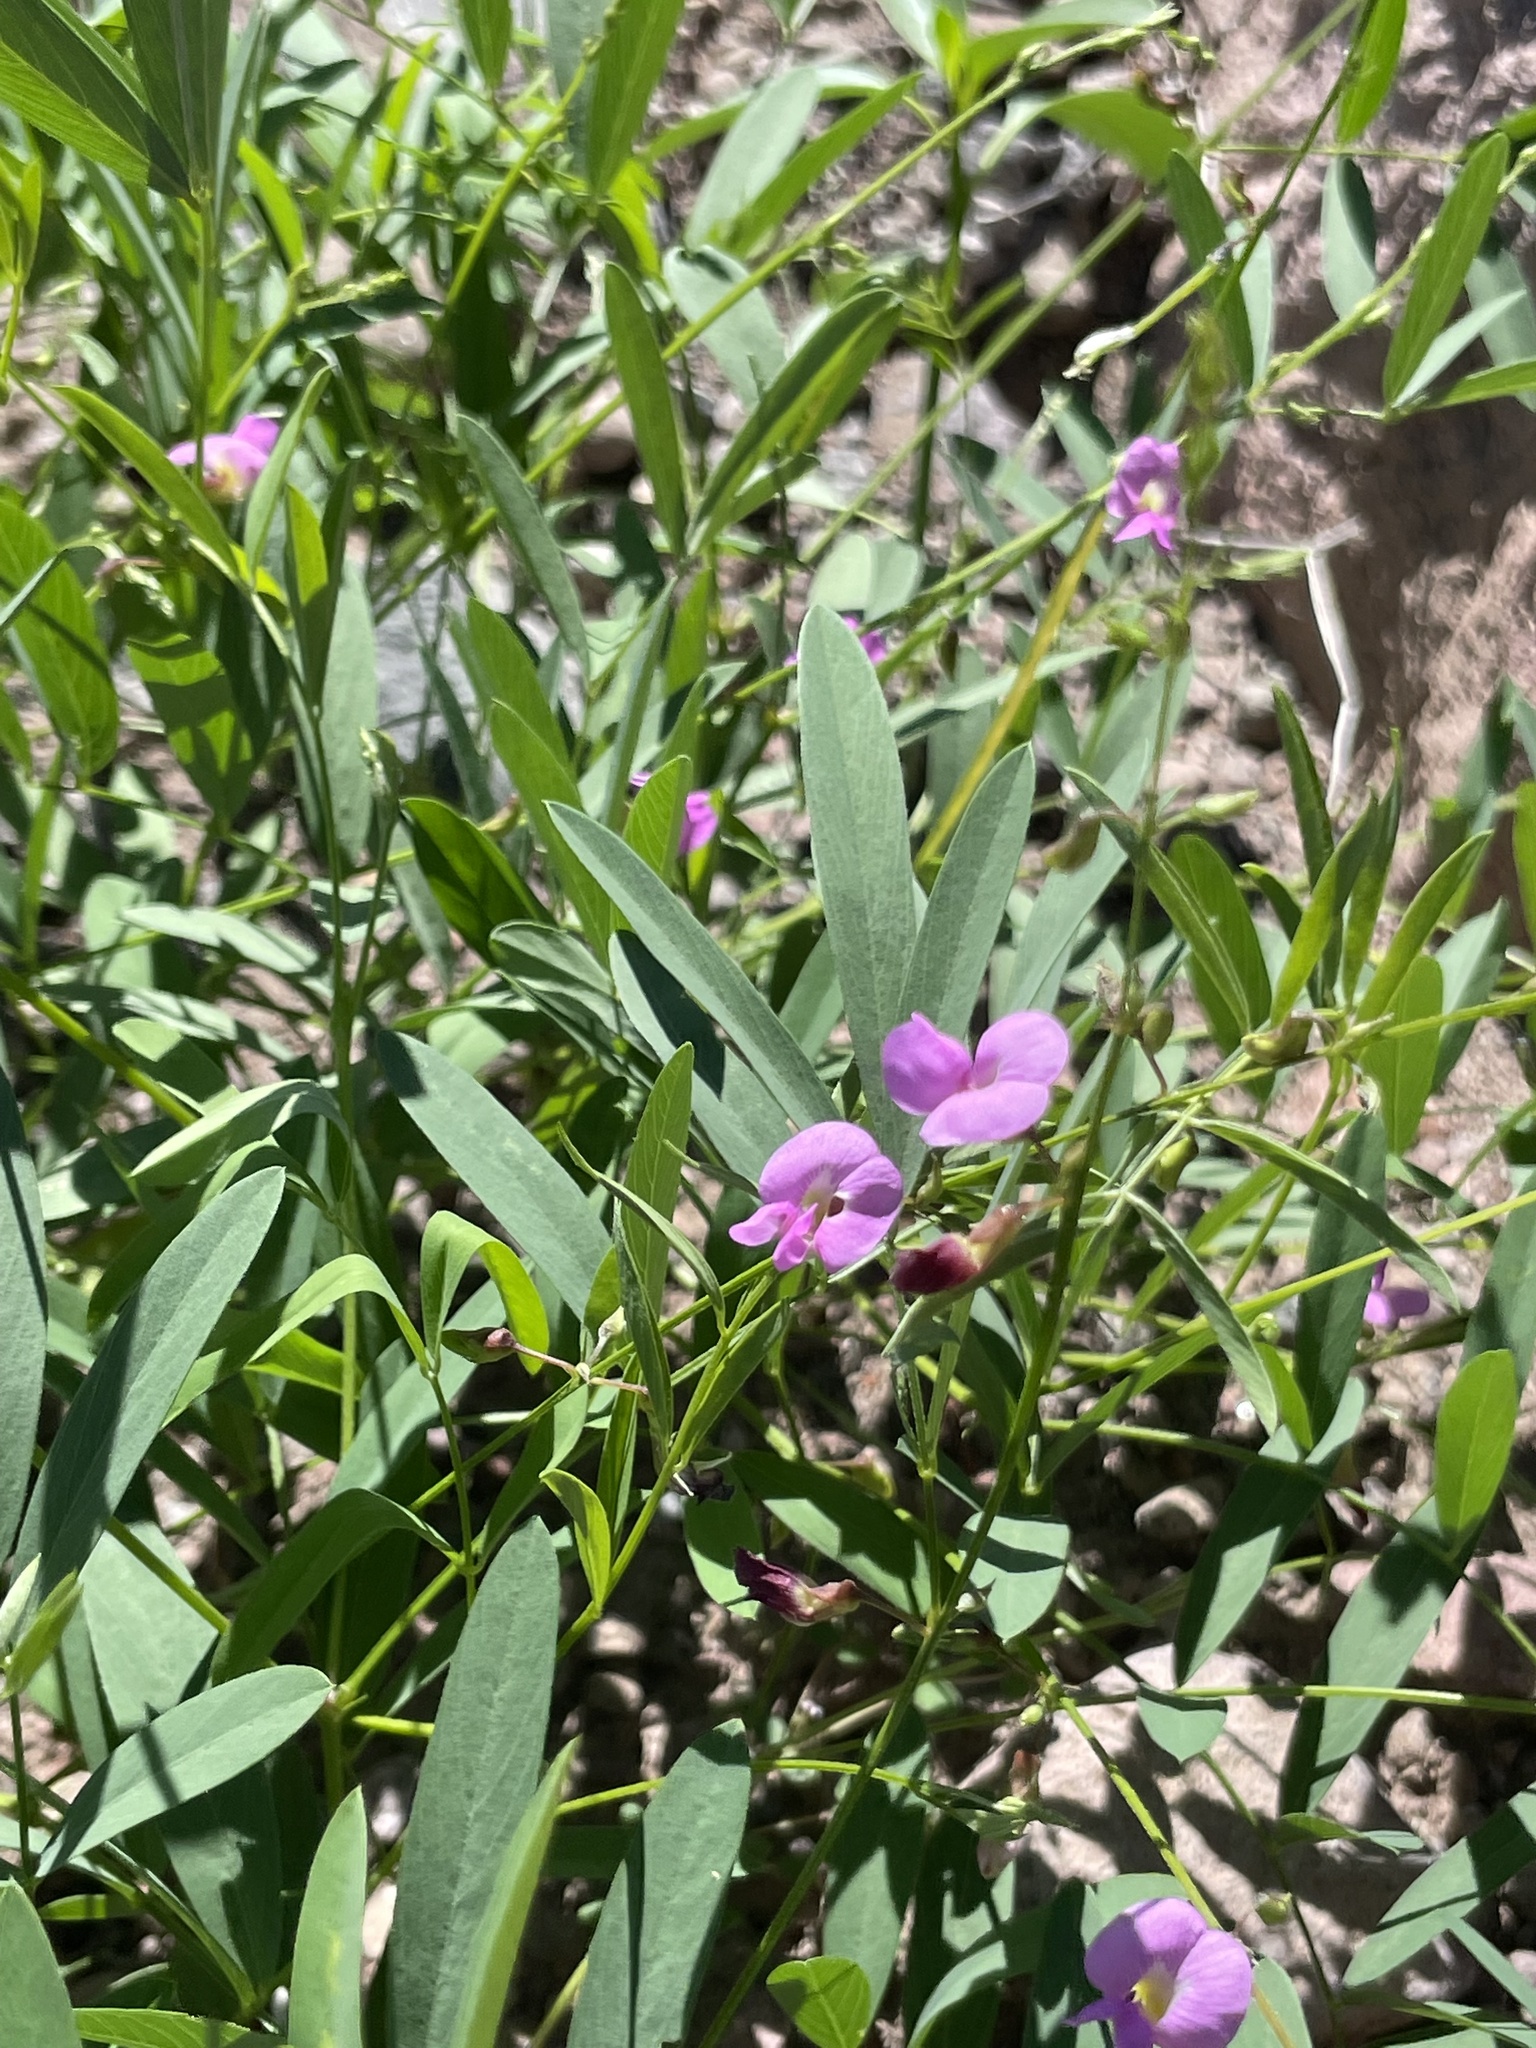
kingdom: Plantae
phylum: Tracheophyta
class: Magnoliopsida
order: Fabales
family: Fabaceae
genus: Tephrosia
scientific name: Tephrosia vicioides
